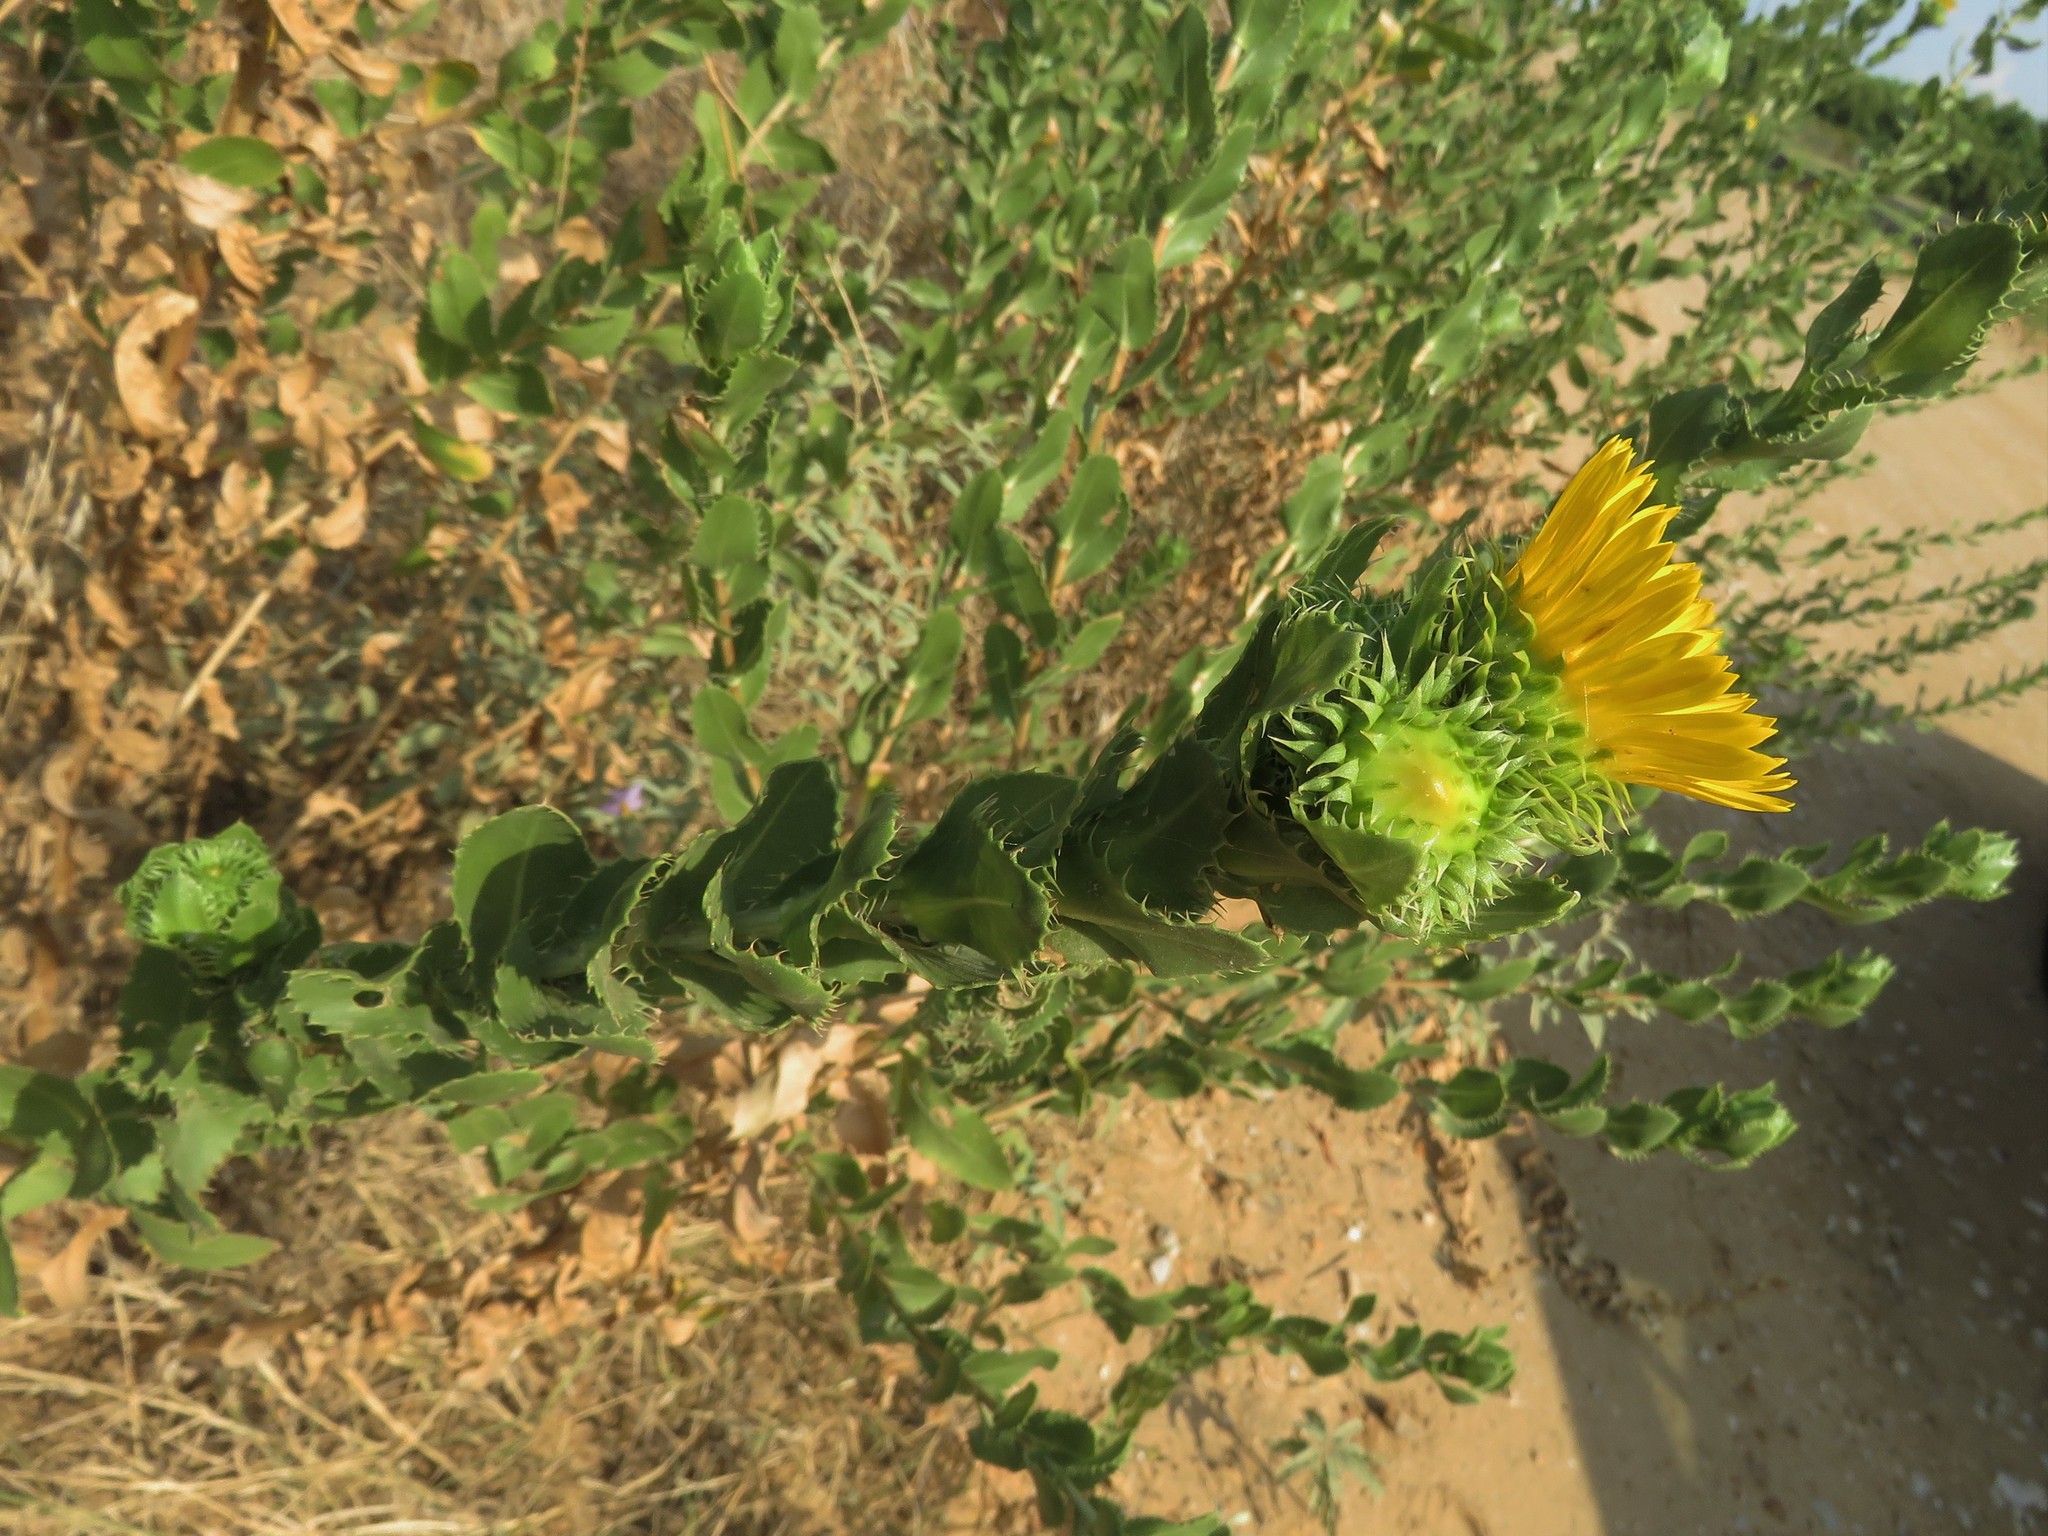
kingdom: Plantae
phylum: Tracheophyta
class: Magnoliopsida
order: Asterales
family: Asteraceae
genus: Grindelia
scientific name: Grindelia ciliata
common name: Goldenweed
